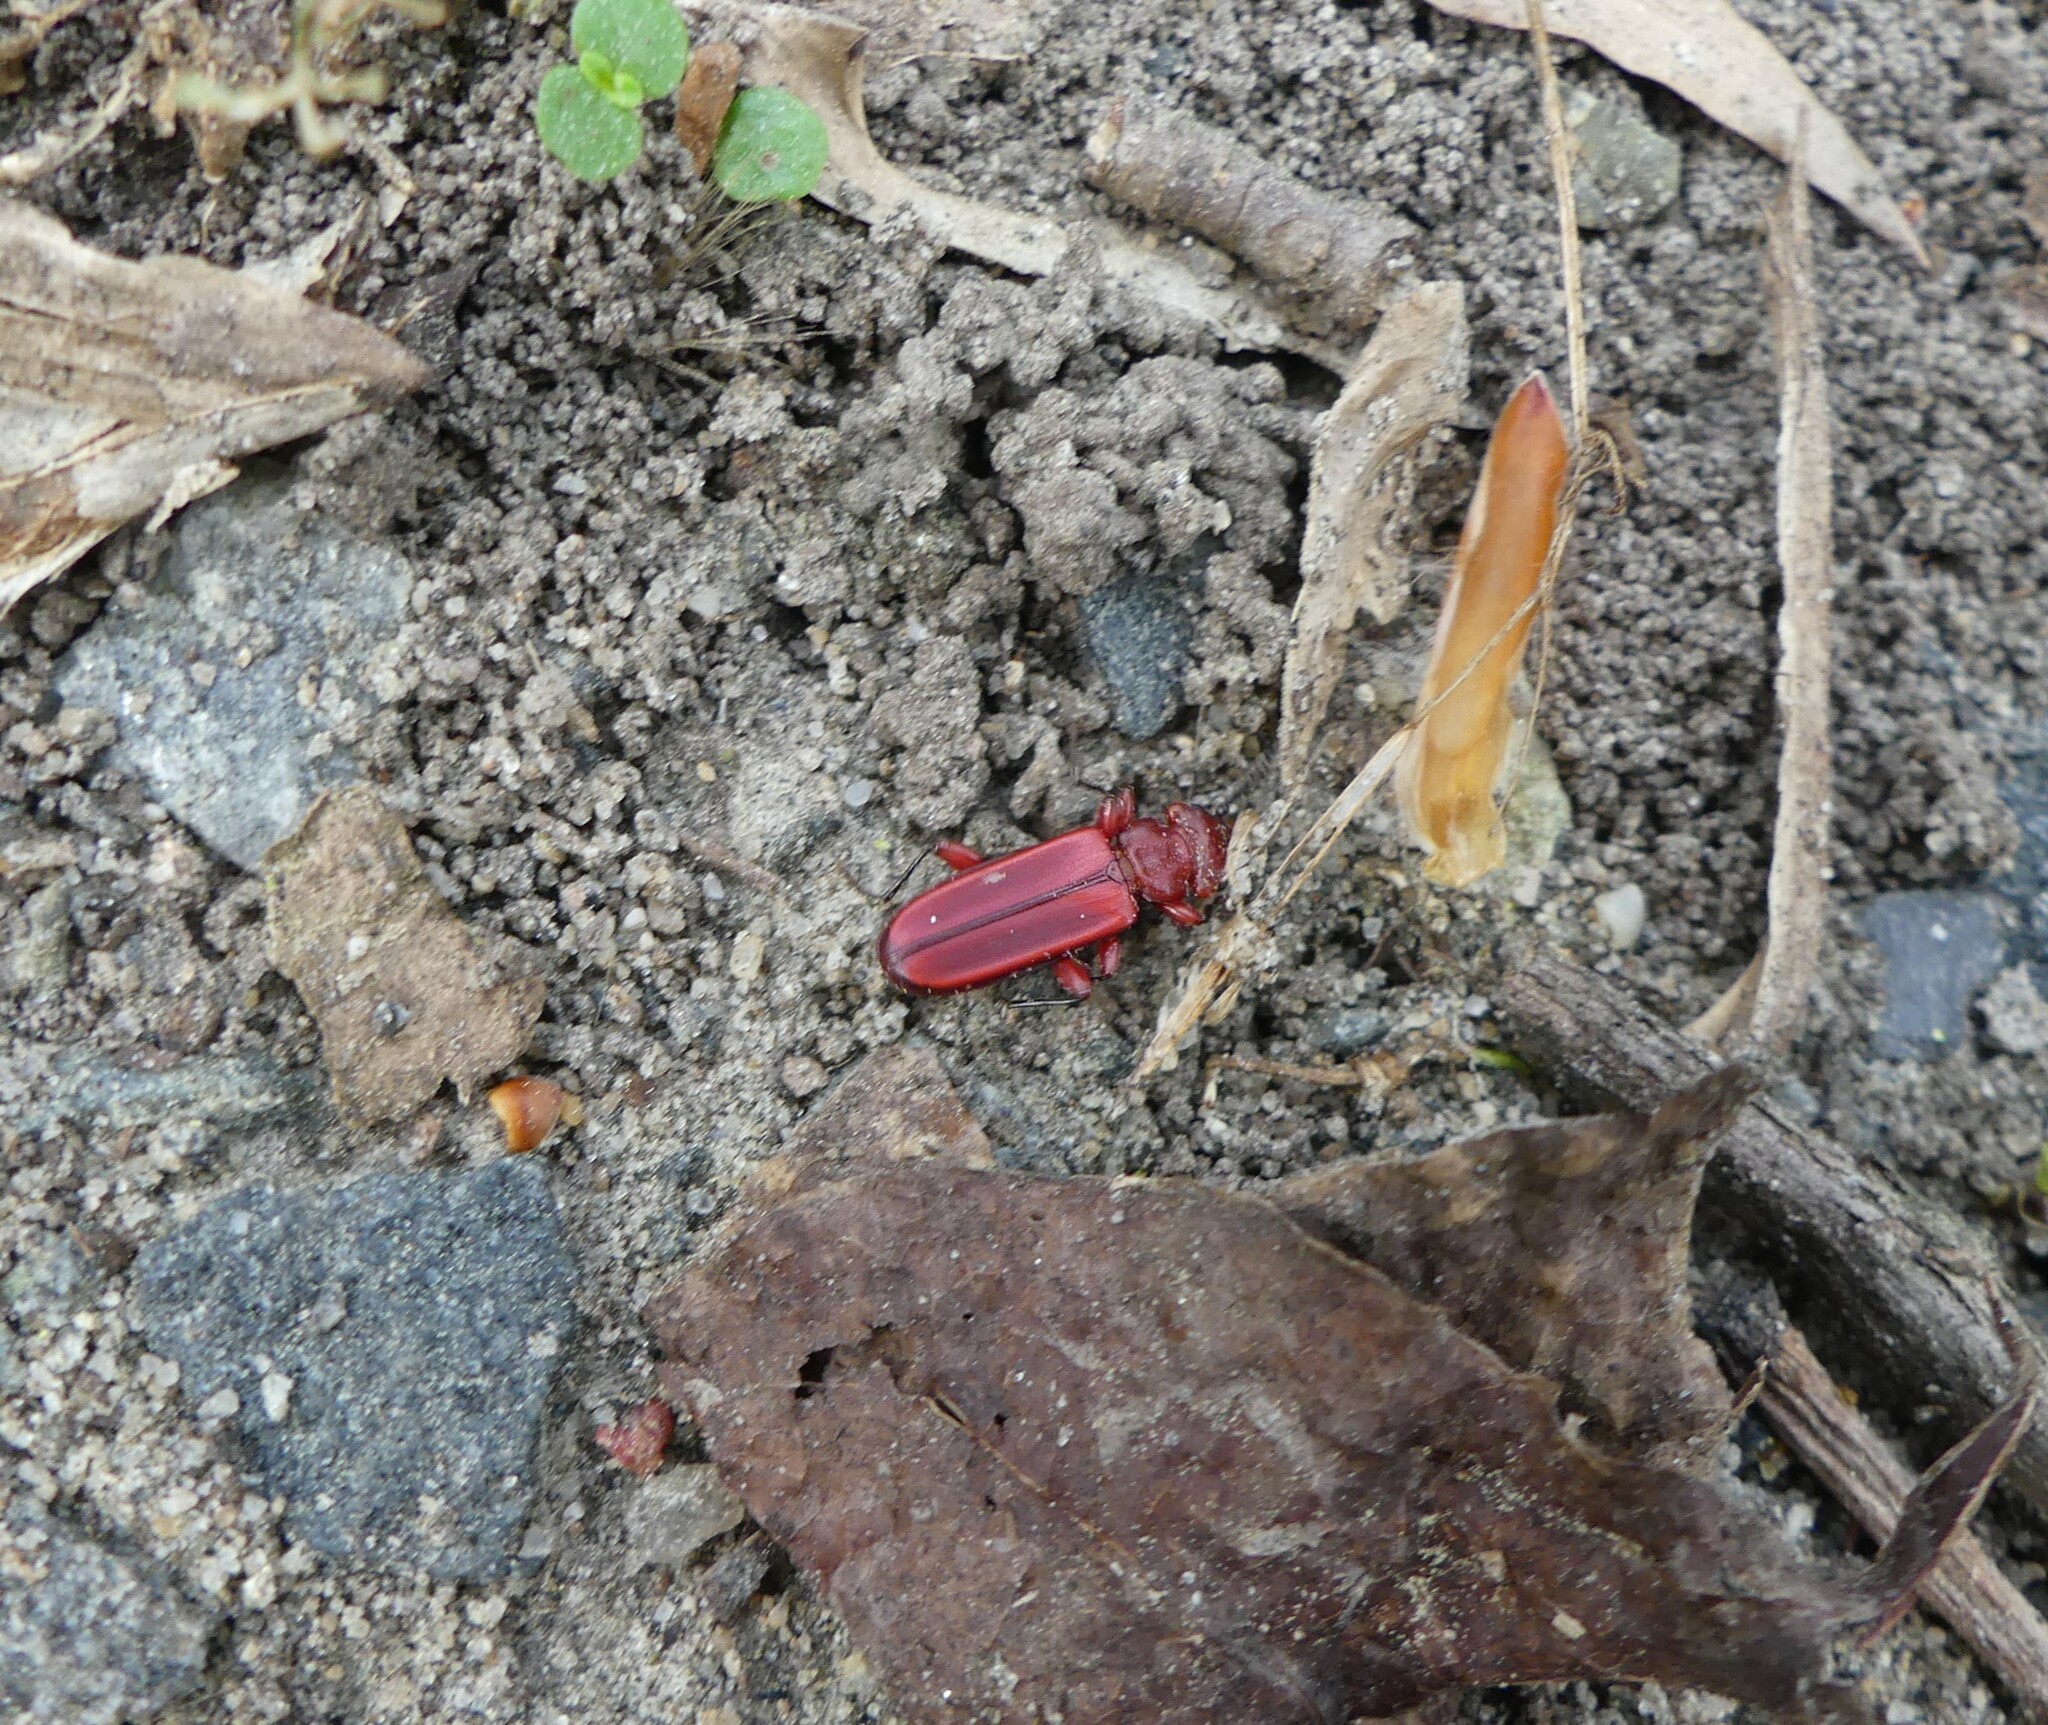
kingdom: Animalia
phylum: Arthropoda
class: Insecta
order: Coleoptera
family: Cucujidae
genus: Cucujus
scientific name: Cucujus clavipes
